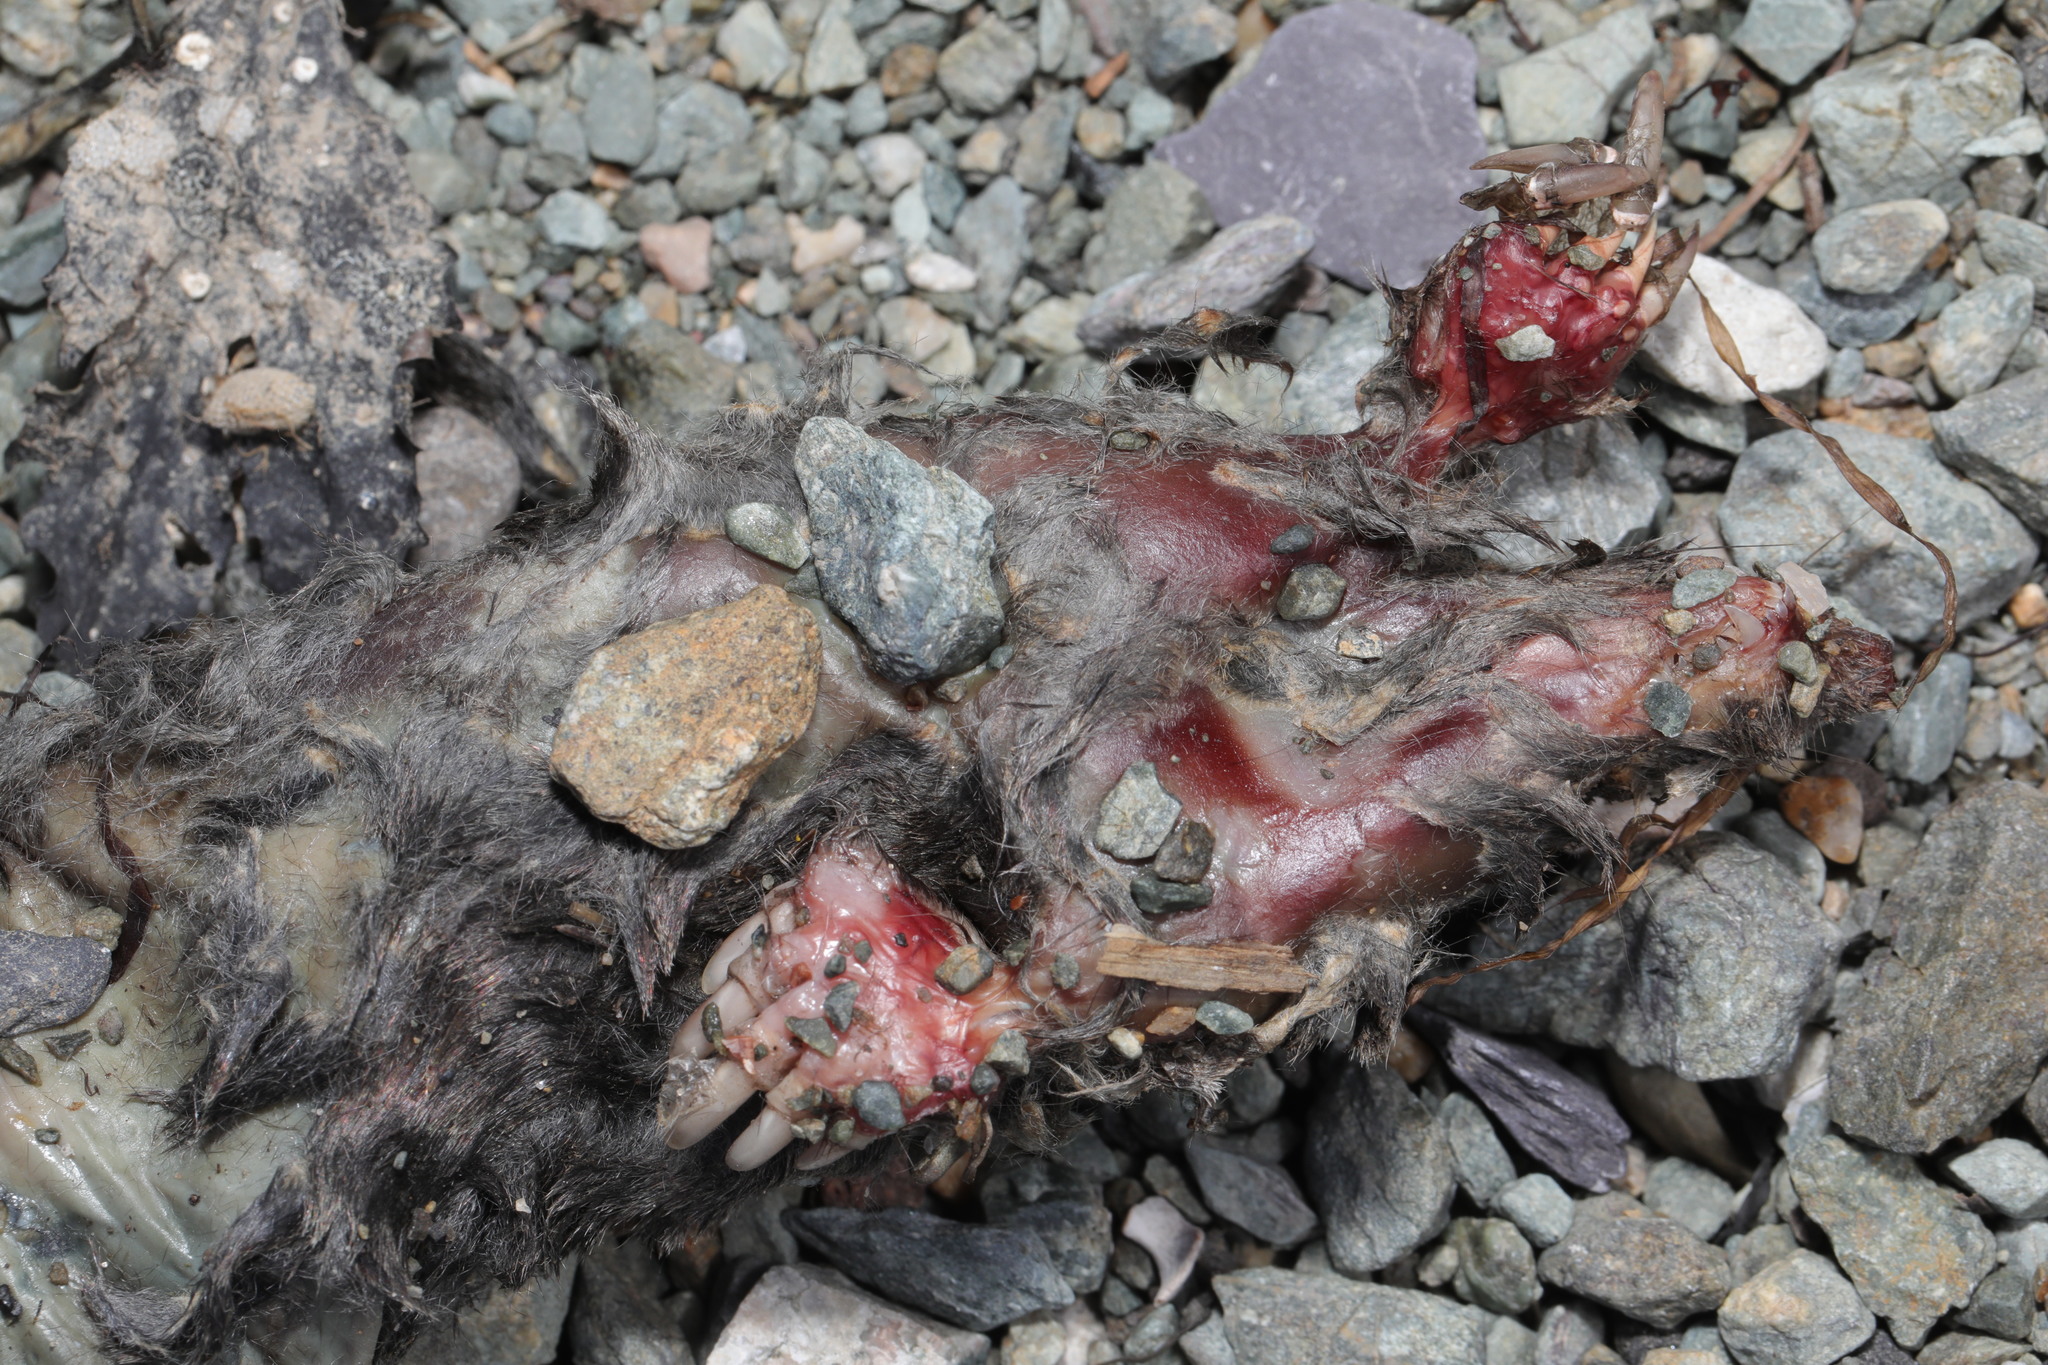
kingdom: Animalia
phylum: Chordata
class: Mammalia
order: Soricomorpha
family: Talpidae
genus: Talpa
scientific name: Talpa europaea
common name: European mole
